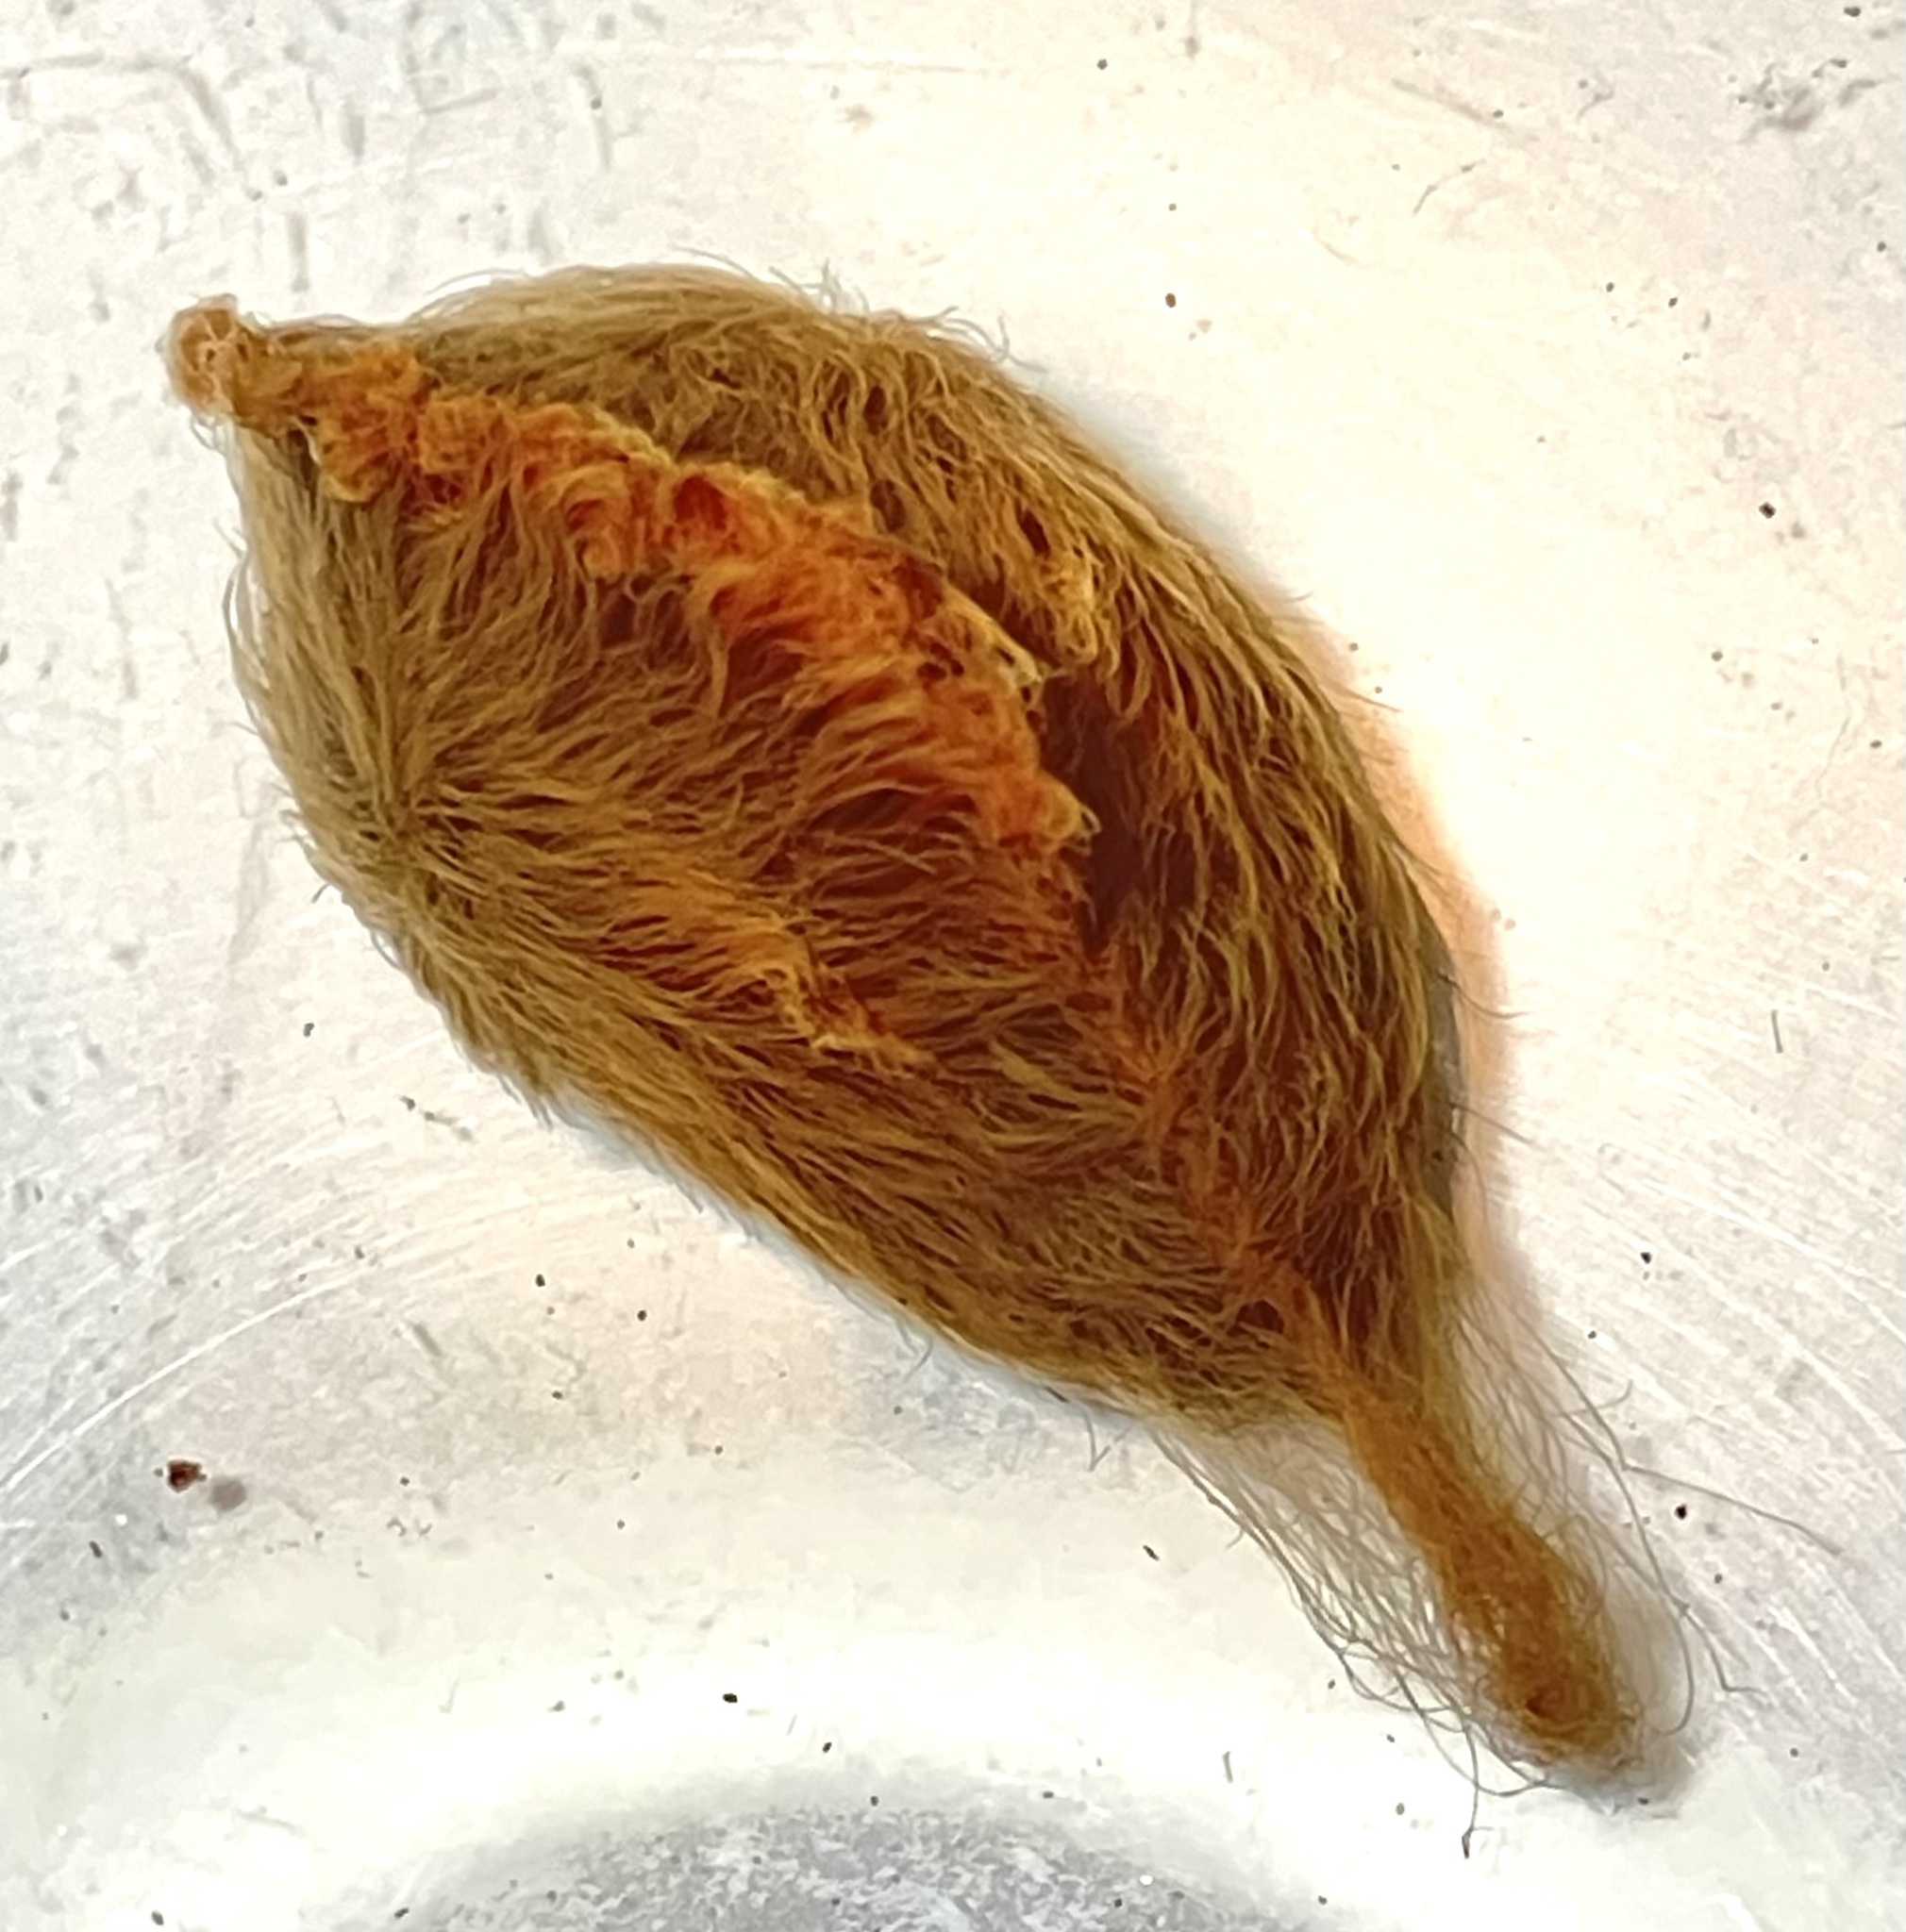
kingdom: Animalia
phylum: Arthropoda
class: Insecta
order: Lepidoptera
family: Megalopygidae
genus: Megalopyge
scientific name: Megalopyge opercularis
